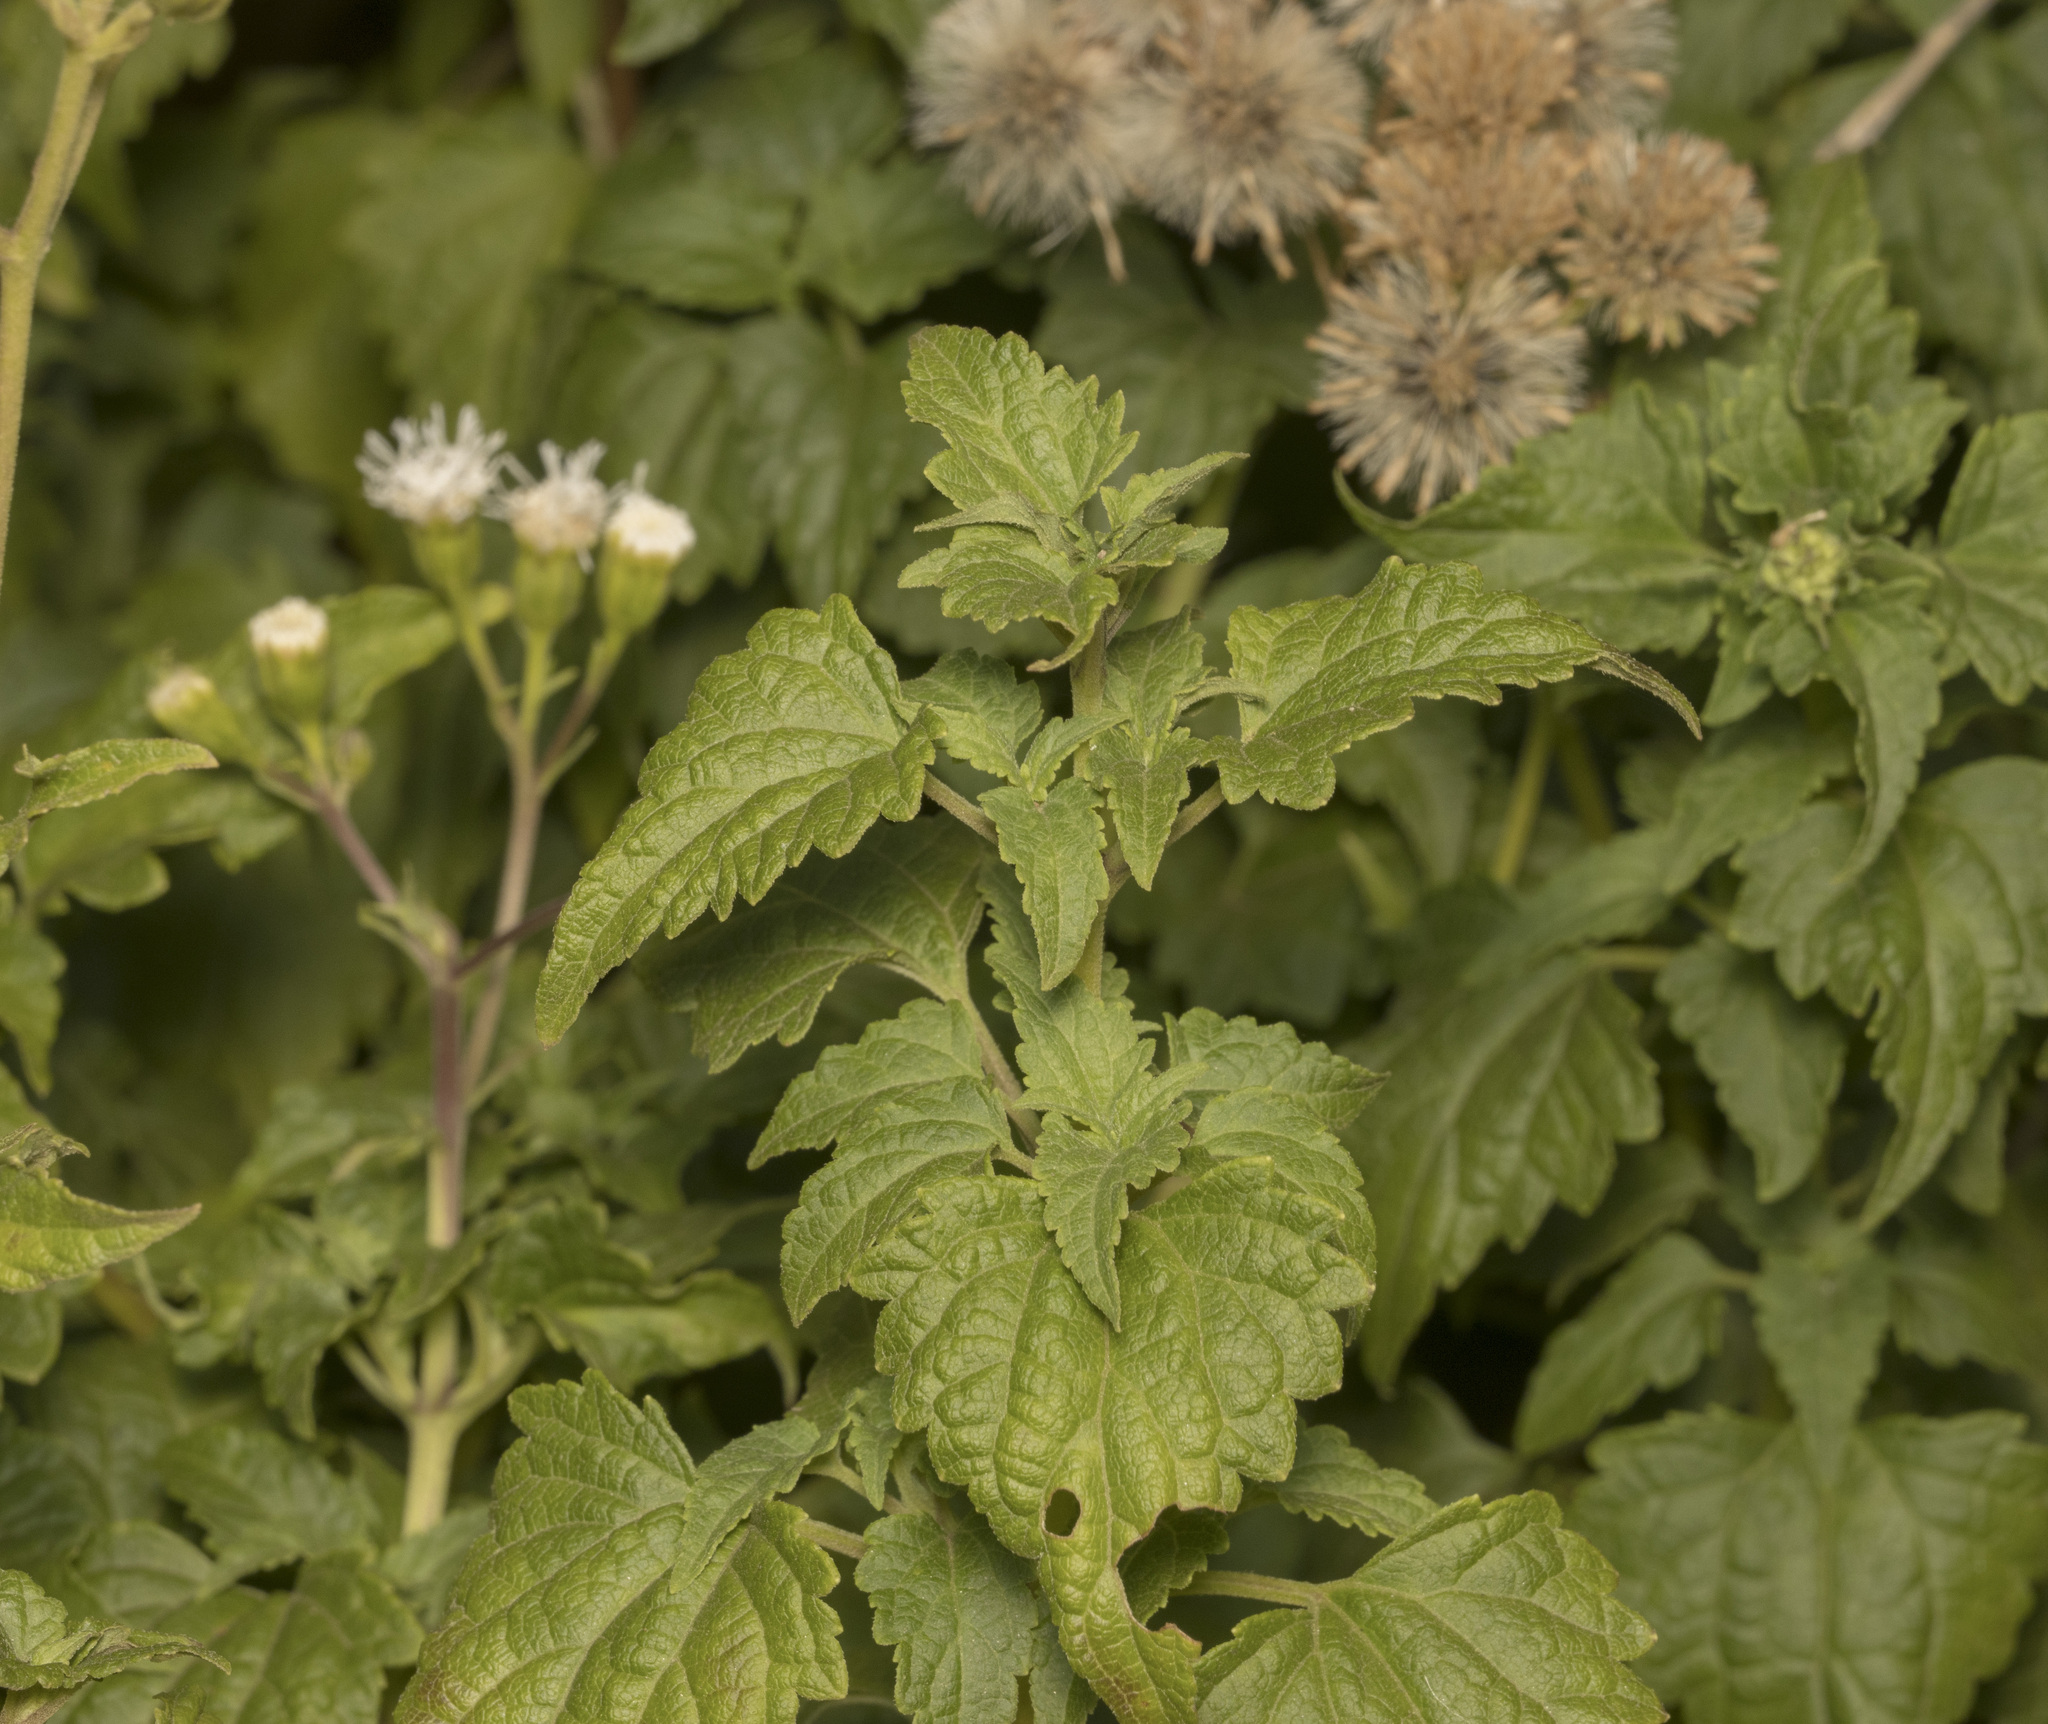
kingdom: Plantae
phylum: Tracheophyta
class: Magnoliopsida
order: Asterales
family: Asteraceae
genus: Ageratina
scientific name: Ageratina glechonophylla
